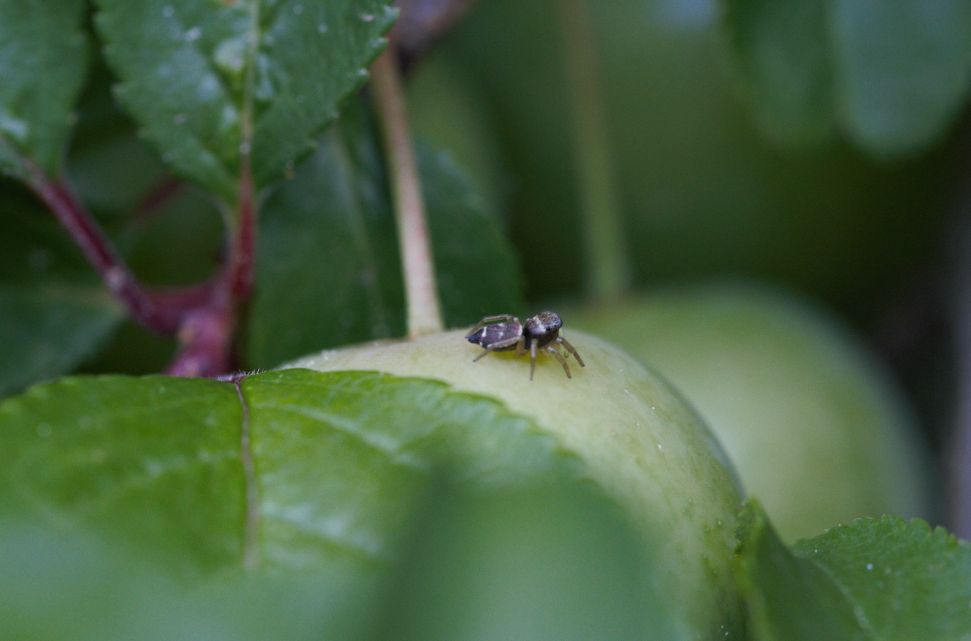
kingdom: Animalia
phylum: Arthropoda
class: Arachnida
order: Araneae
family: Salticidae
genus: Heliophanus
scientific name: Heliophanus tribulosus
